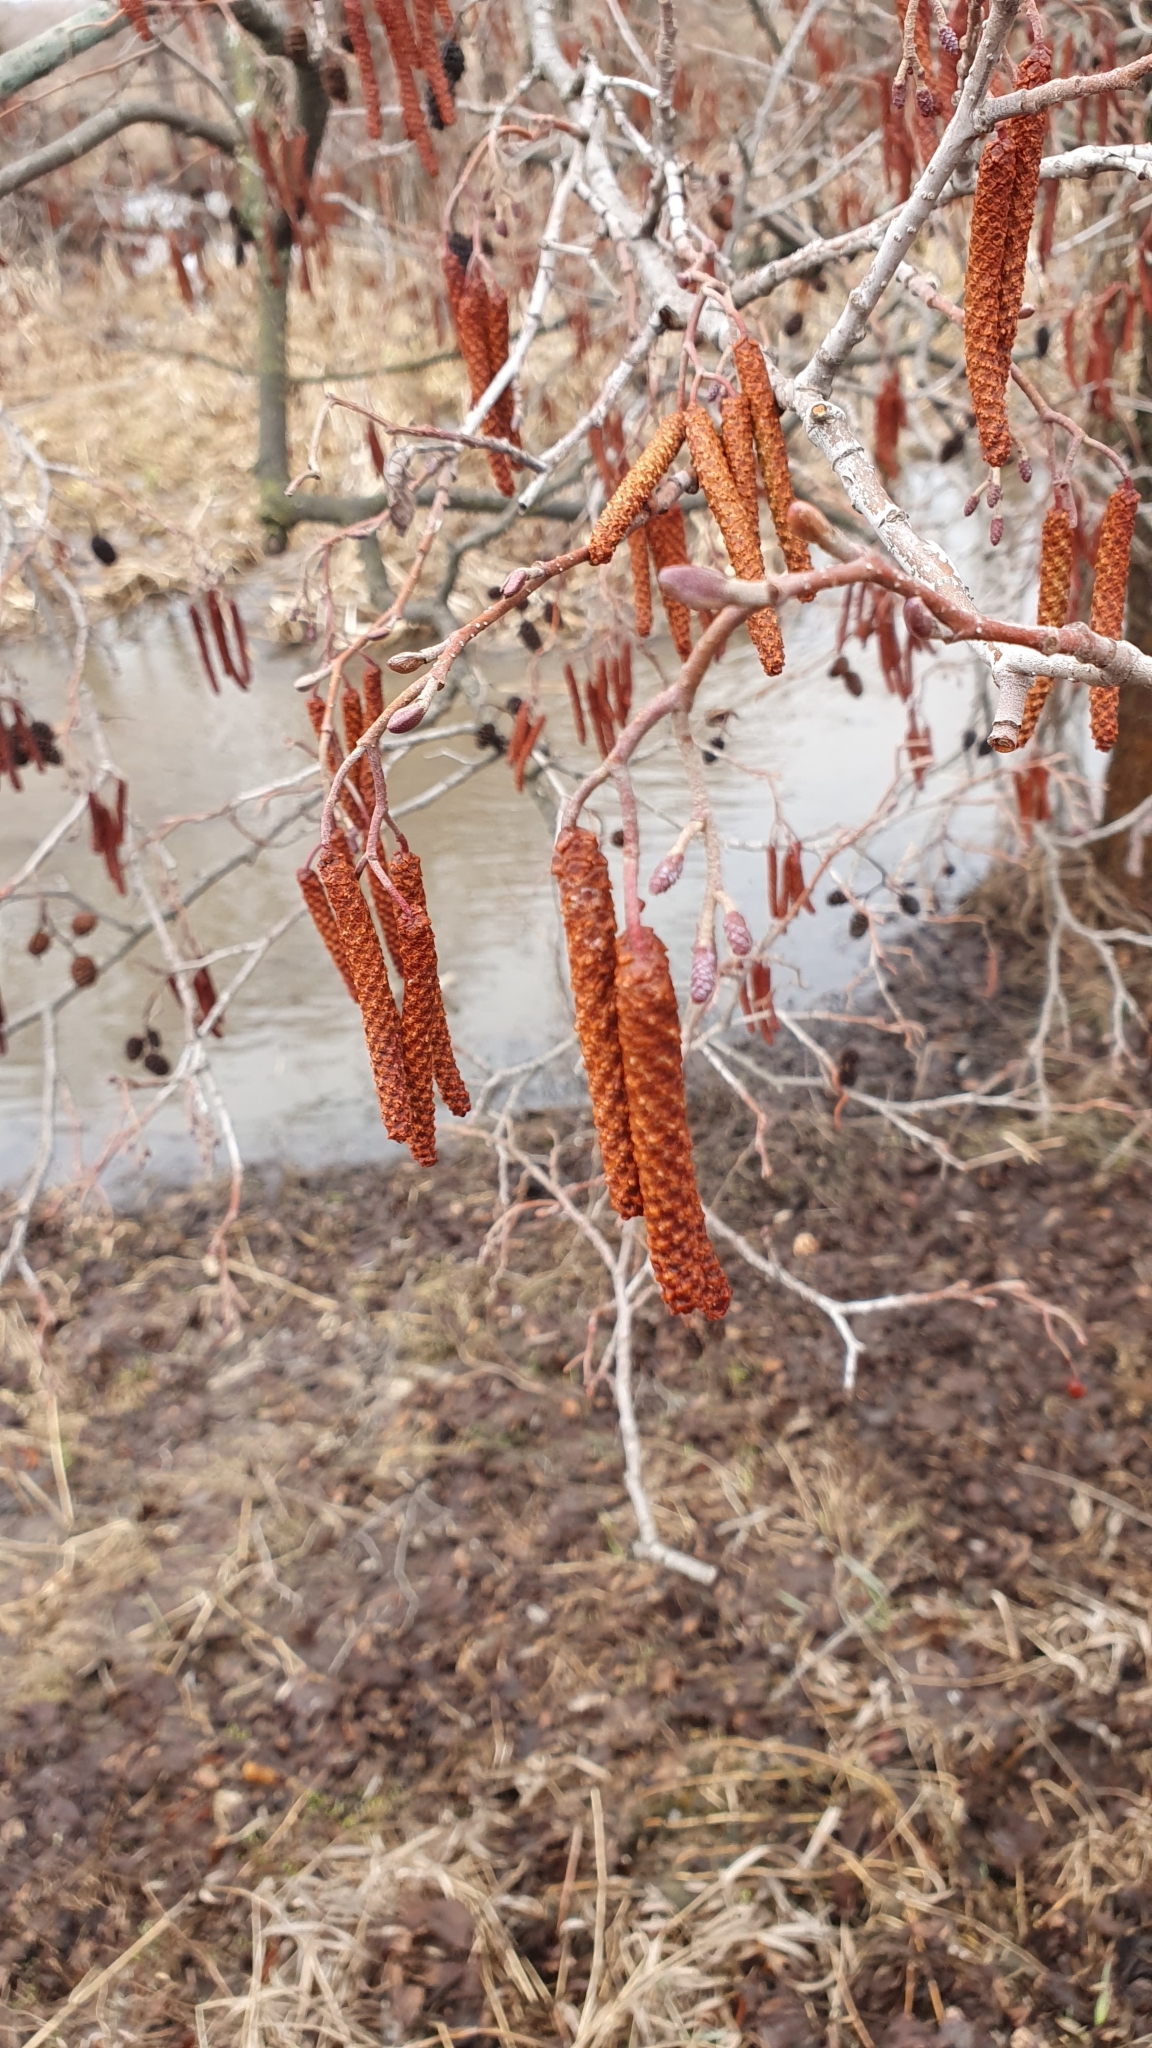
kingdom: Plantae
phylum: Tracheophyta
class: Magnoliopsida
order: Fagales
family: Betulaceae
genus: Alnus
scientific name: Alnus glutinosa
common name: Black alder
